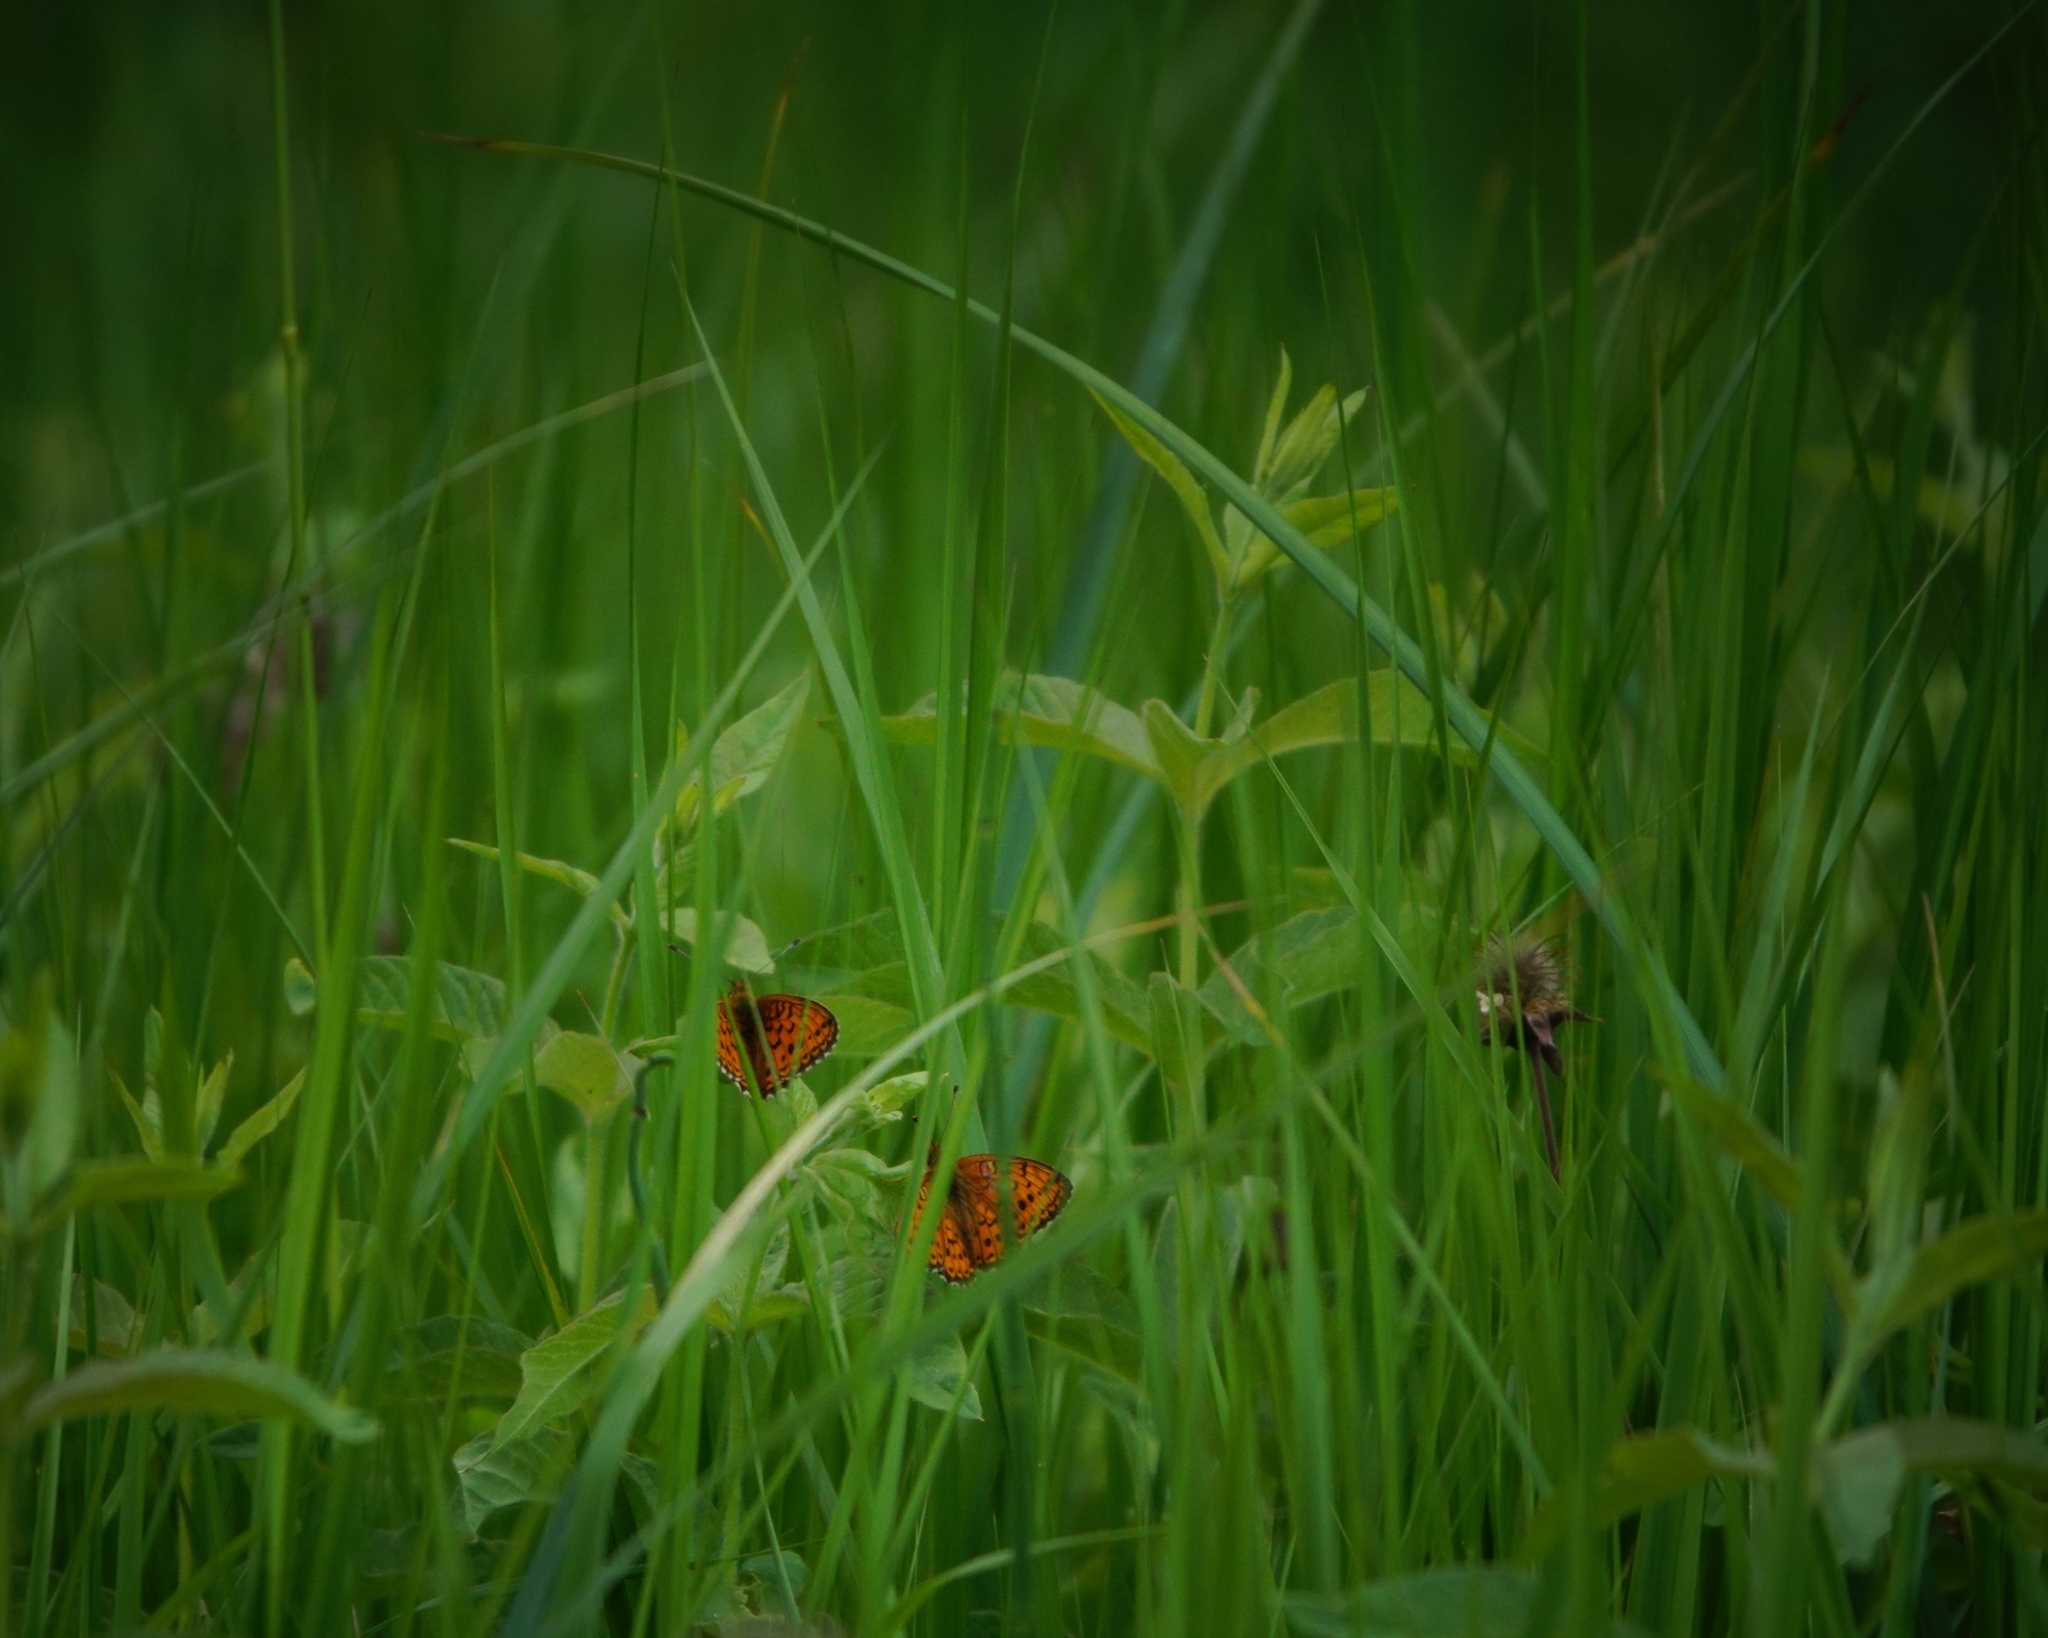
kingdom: Animalia
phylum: Arthropoda
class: Insecta
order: Lepidoptera
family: Nymphalidae
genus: Brenthis
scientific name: Brenthis ino
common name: Lesser marbled fritillary
